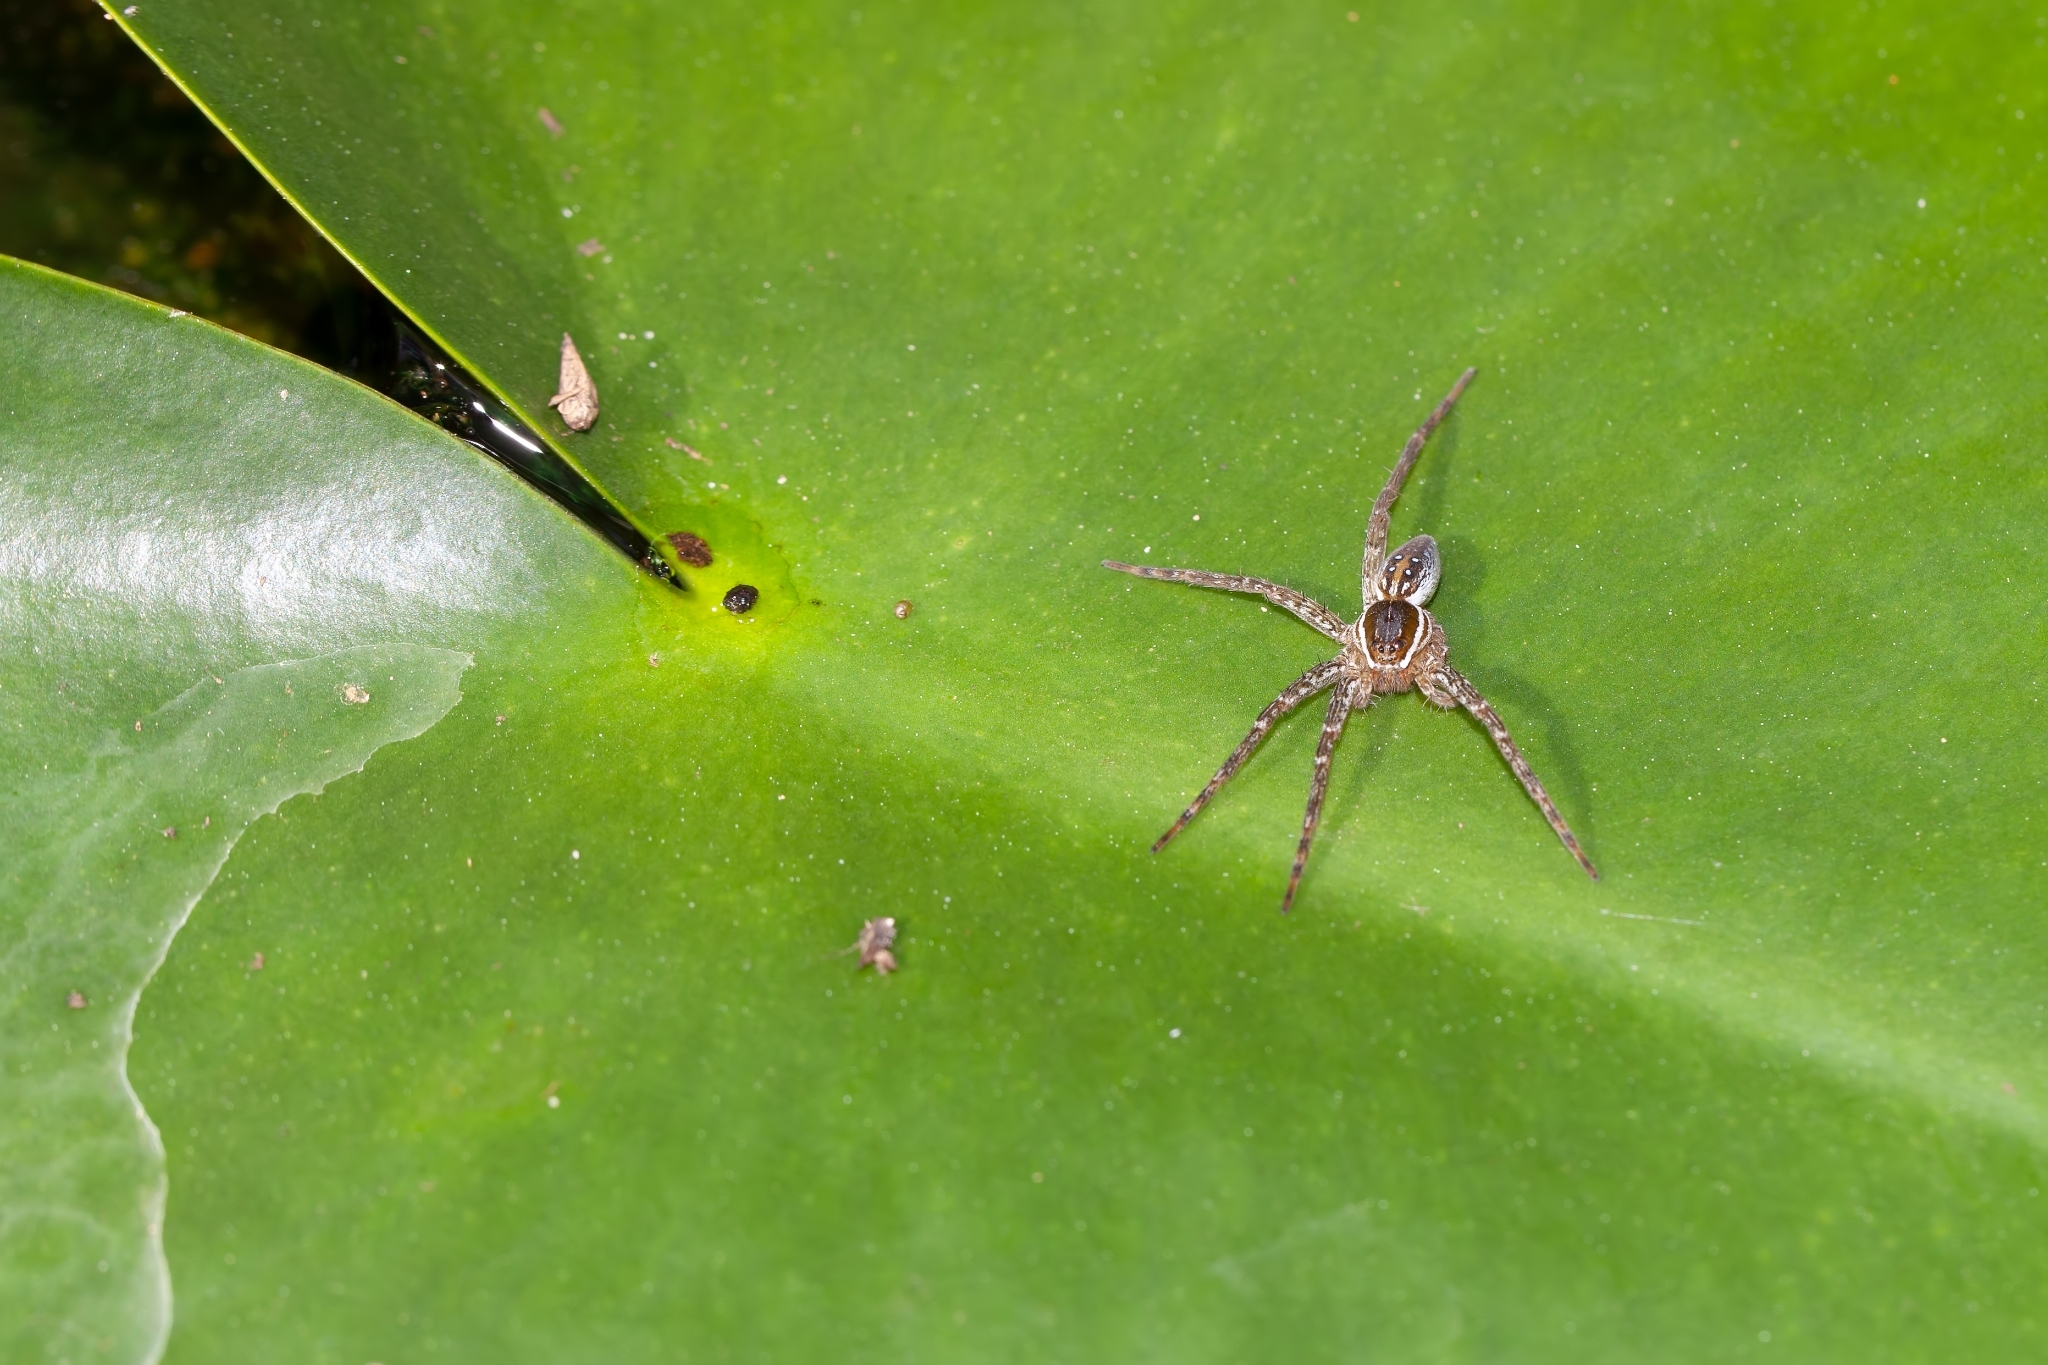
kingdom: Animalia
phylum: Arthropoda
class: Arachnida
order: Araneae
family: Pisauridae
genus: Dolomedes
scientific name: Dolomedes triton
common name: Six-spotted fishing spider
